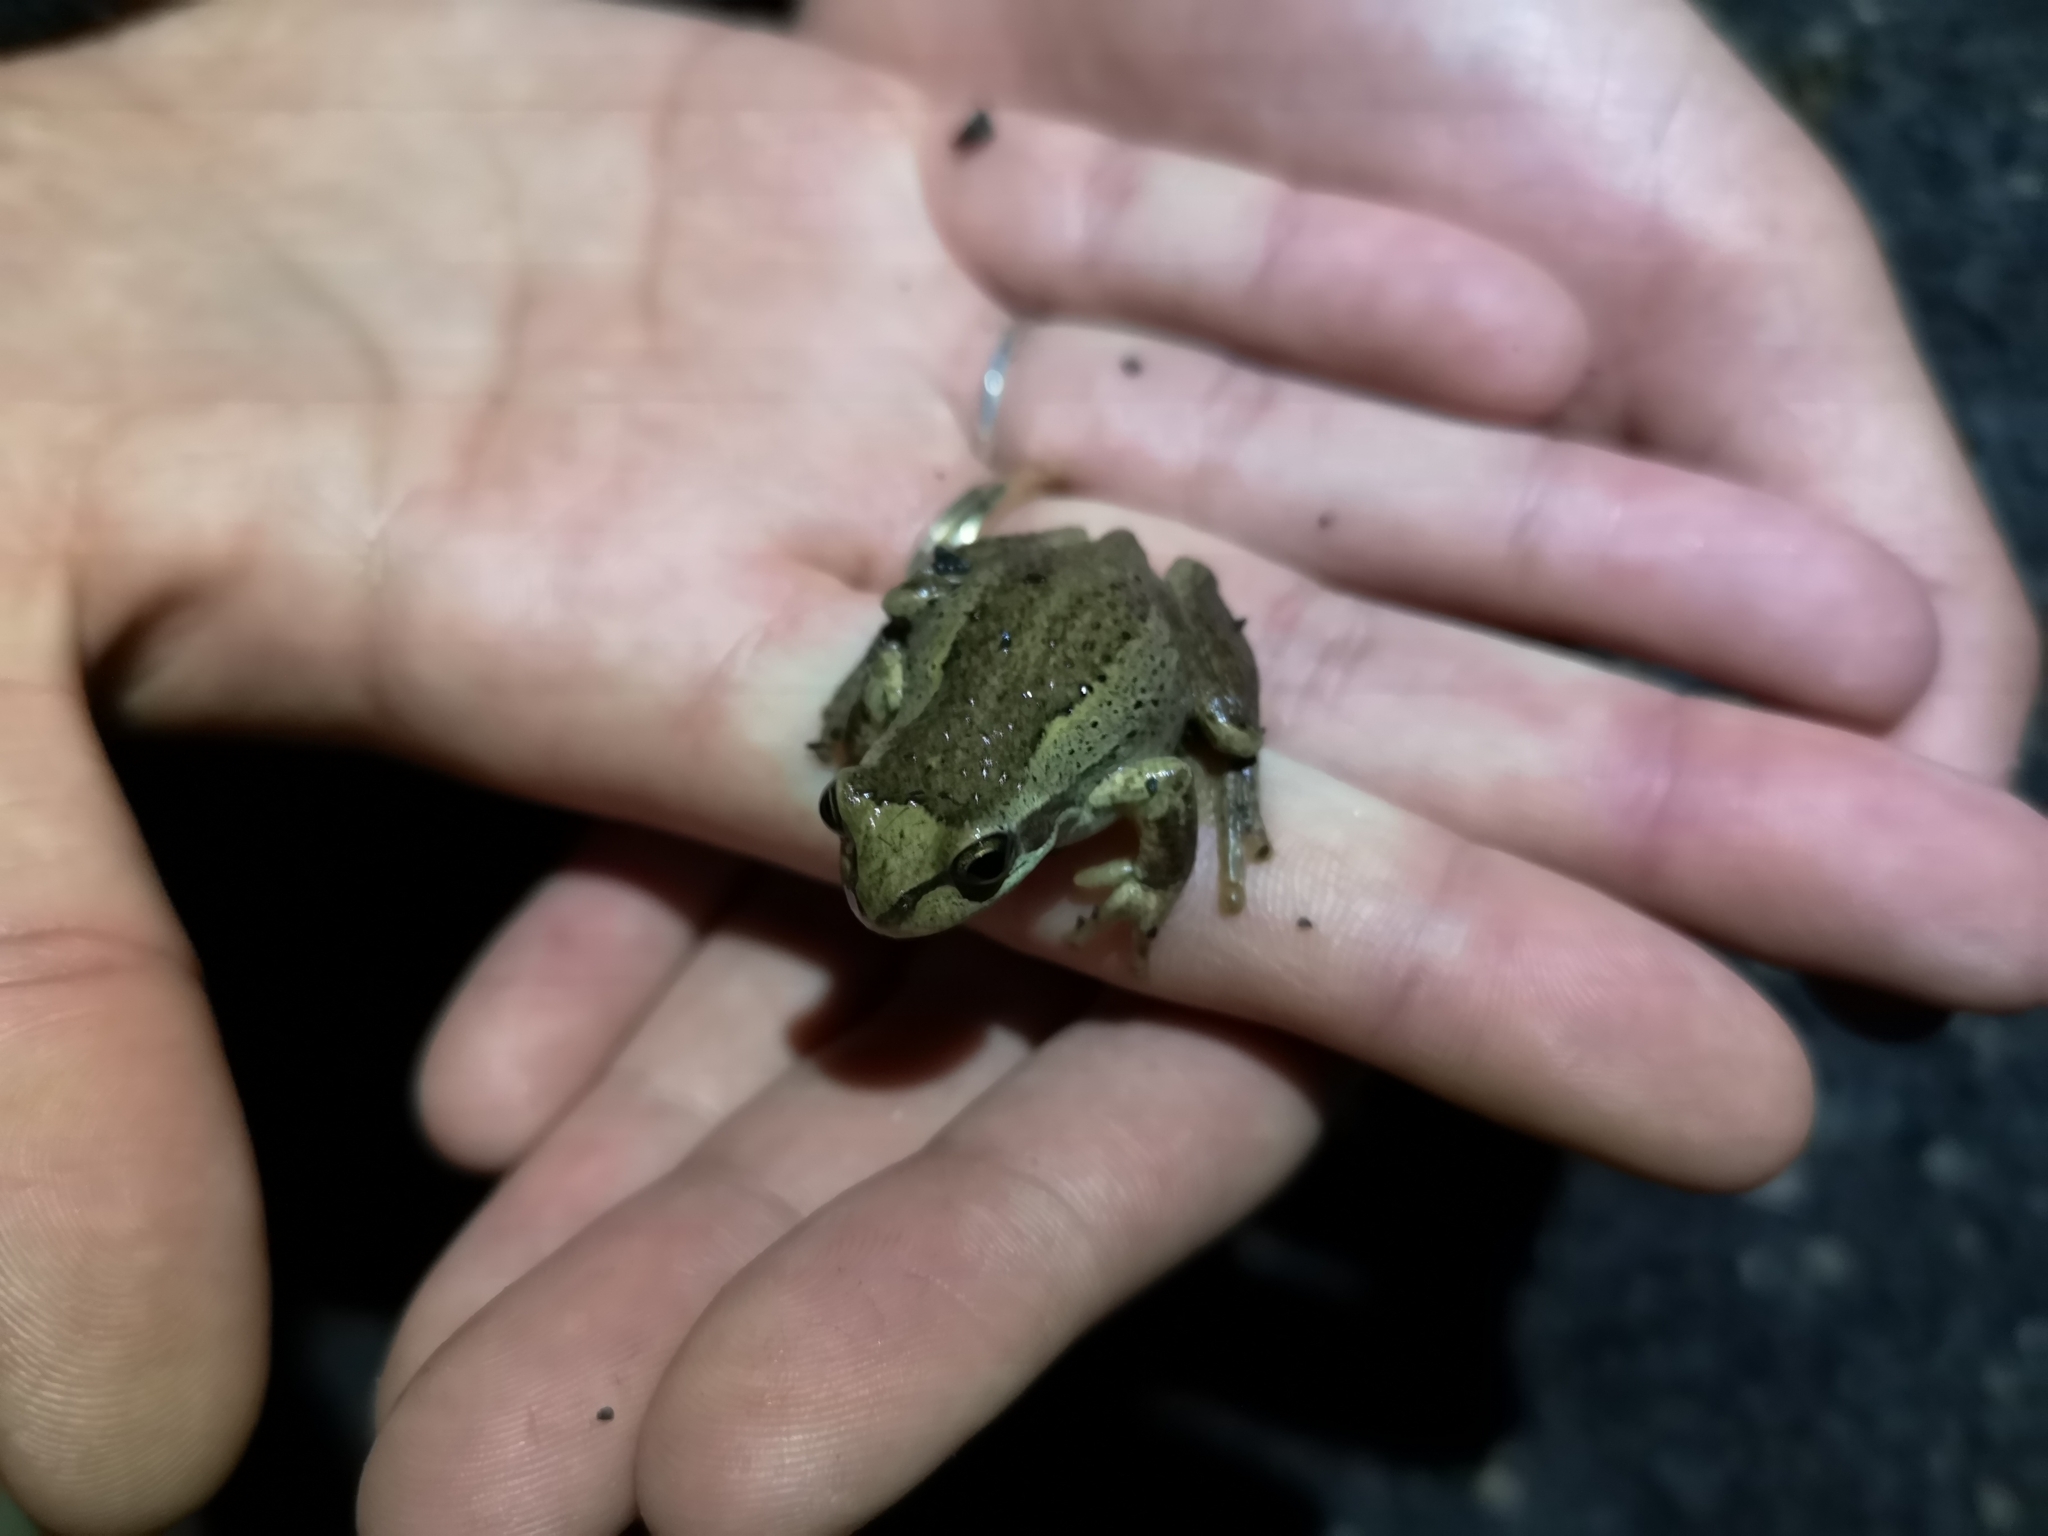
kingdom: Animalia
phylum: Chordata
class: Amphibia
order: Anura
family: Pelodryadidae
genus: Litoria
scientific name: Litoria ewingii
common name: Southern brown tree frog
